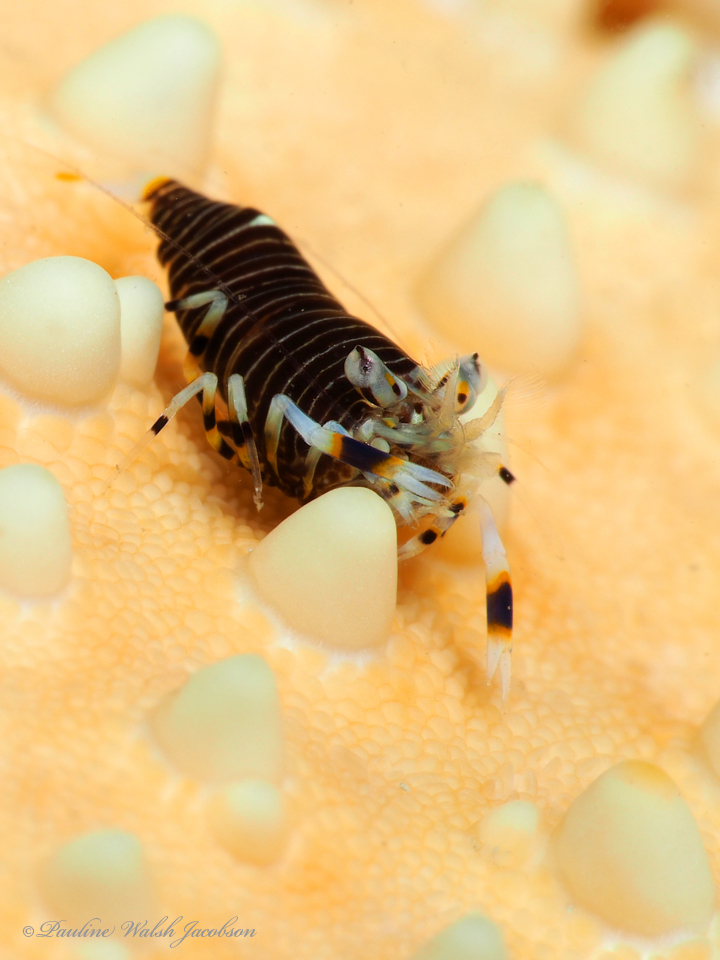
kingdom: Animalia
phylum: Arthropoda
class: Malacostraca
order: Decapoda
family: Palaemonidae
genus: Gnathophyllum
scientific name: Gnathophyllum americanum
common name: Bumblebee shrimp
